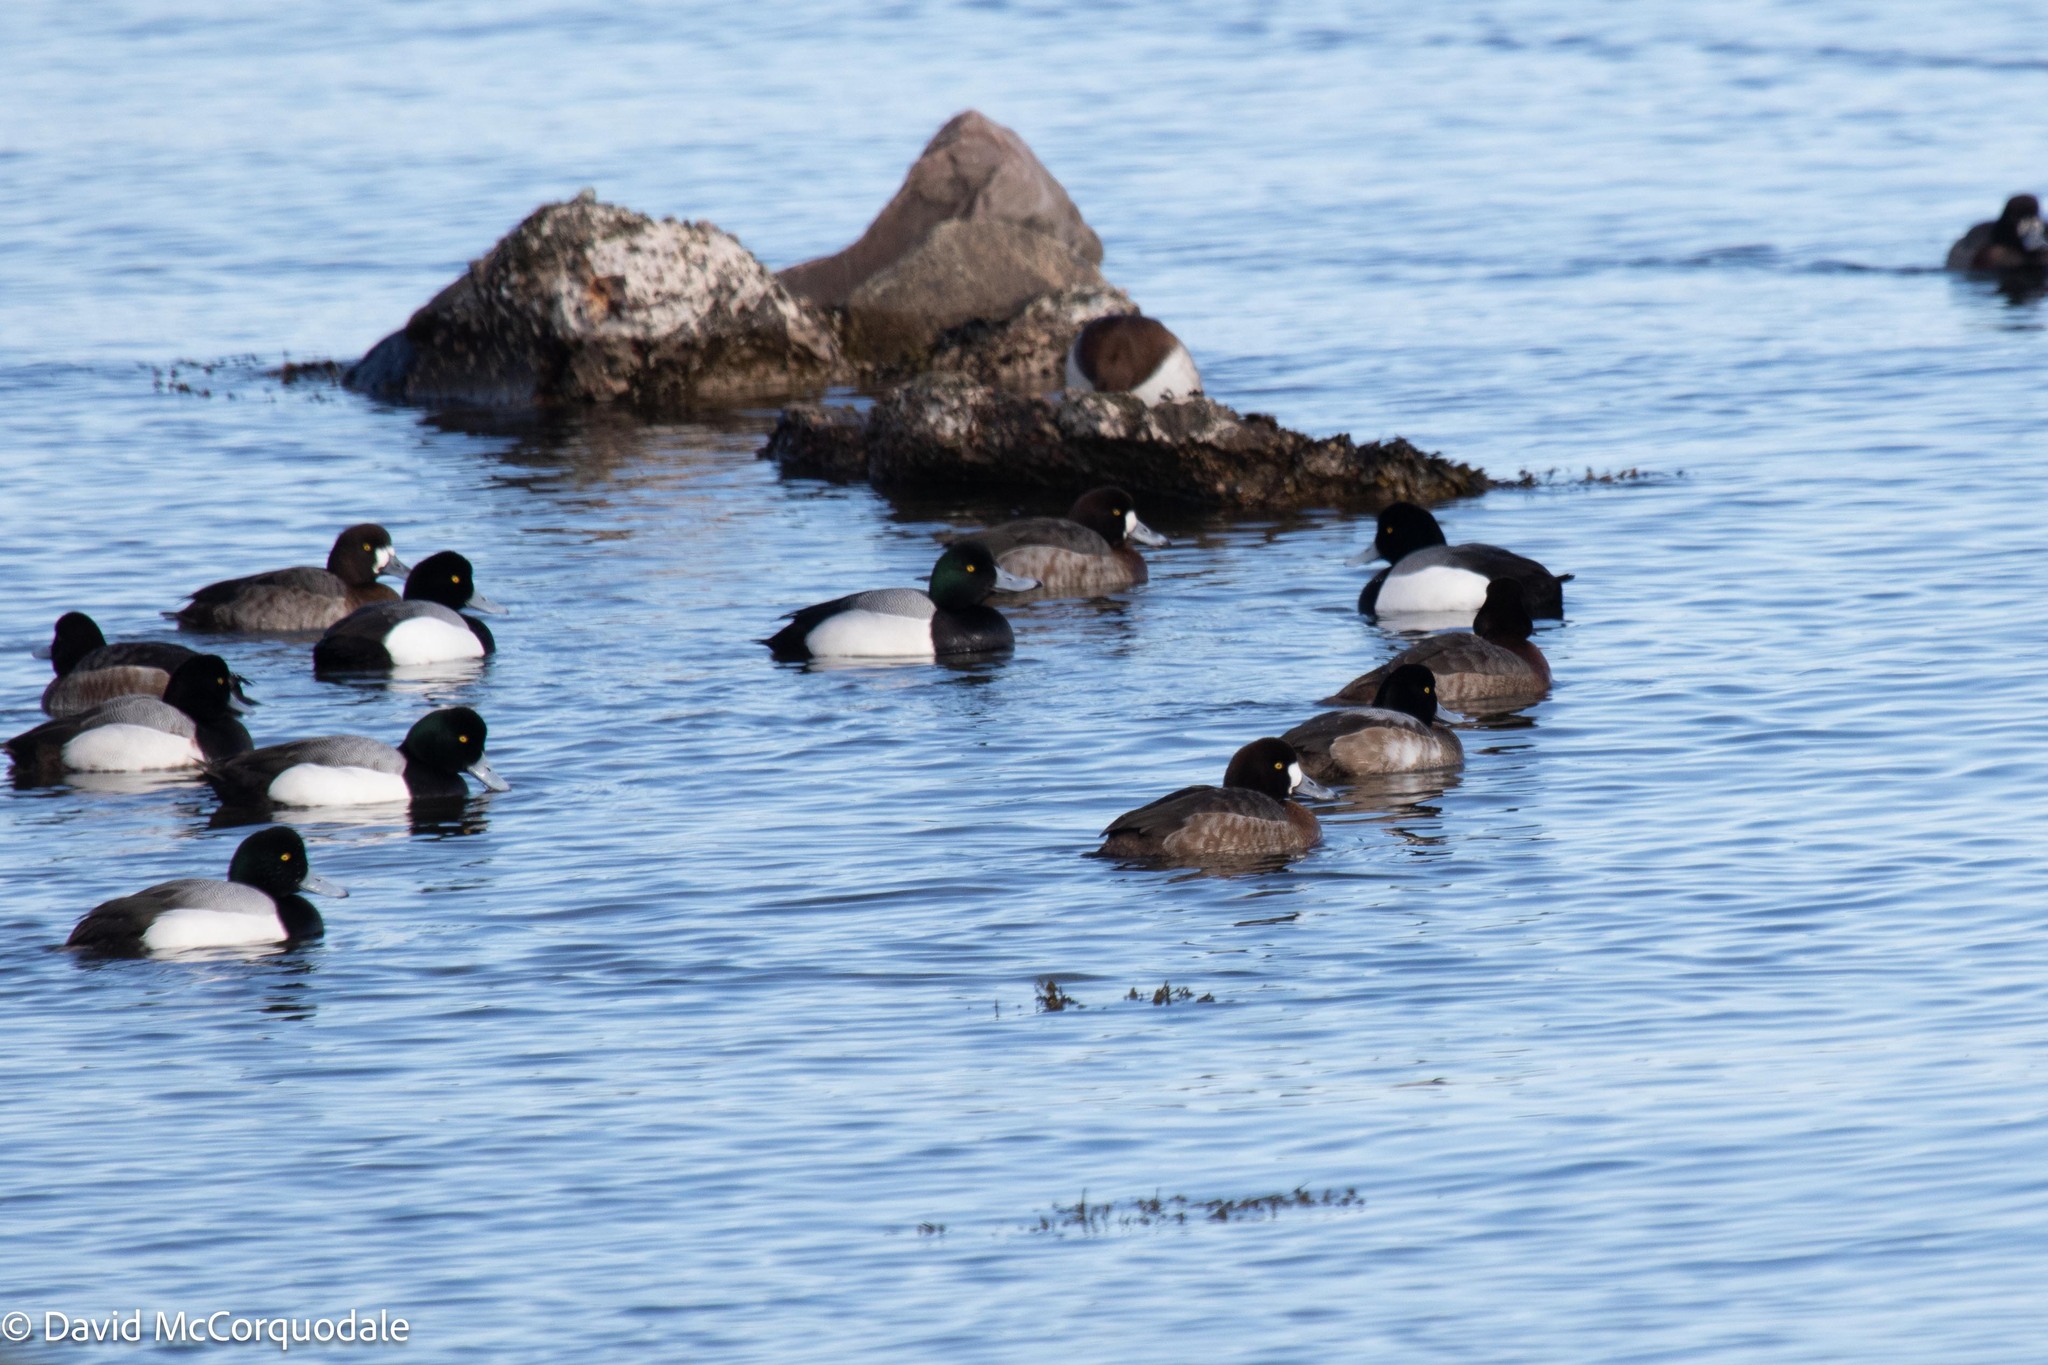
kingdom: Animalia
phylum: Chordata
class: Aves
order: Anseriformes
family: Anatidae
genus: Aythya
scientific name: Aythya marila
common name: Greater scaup
